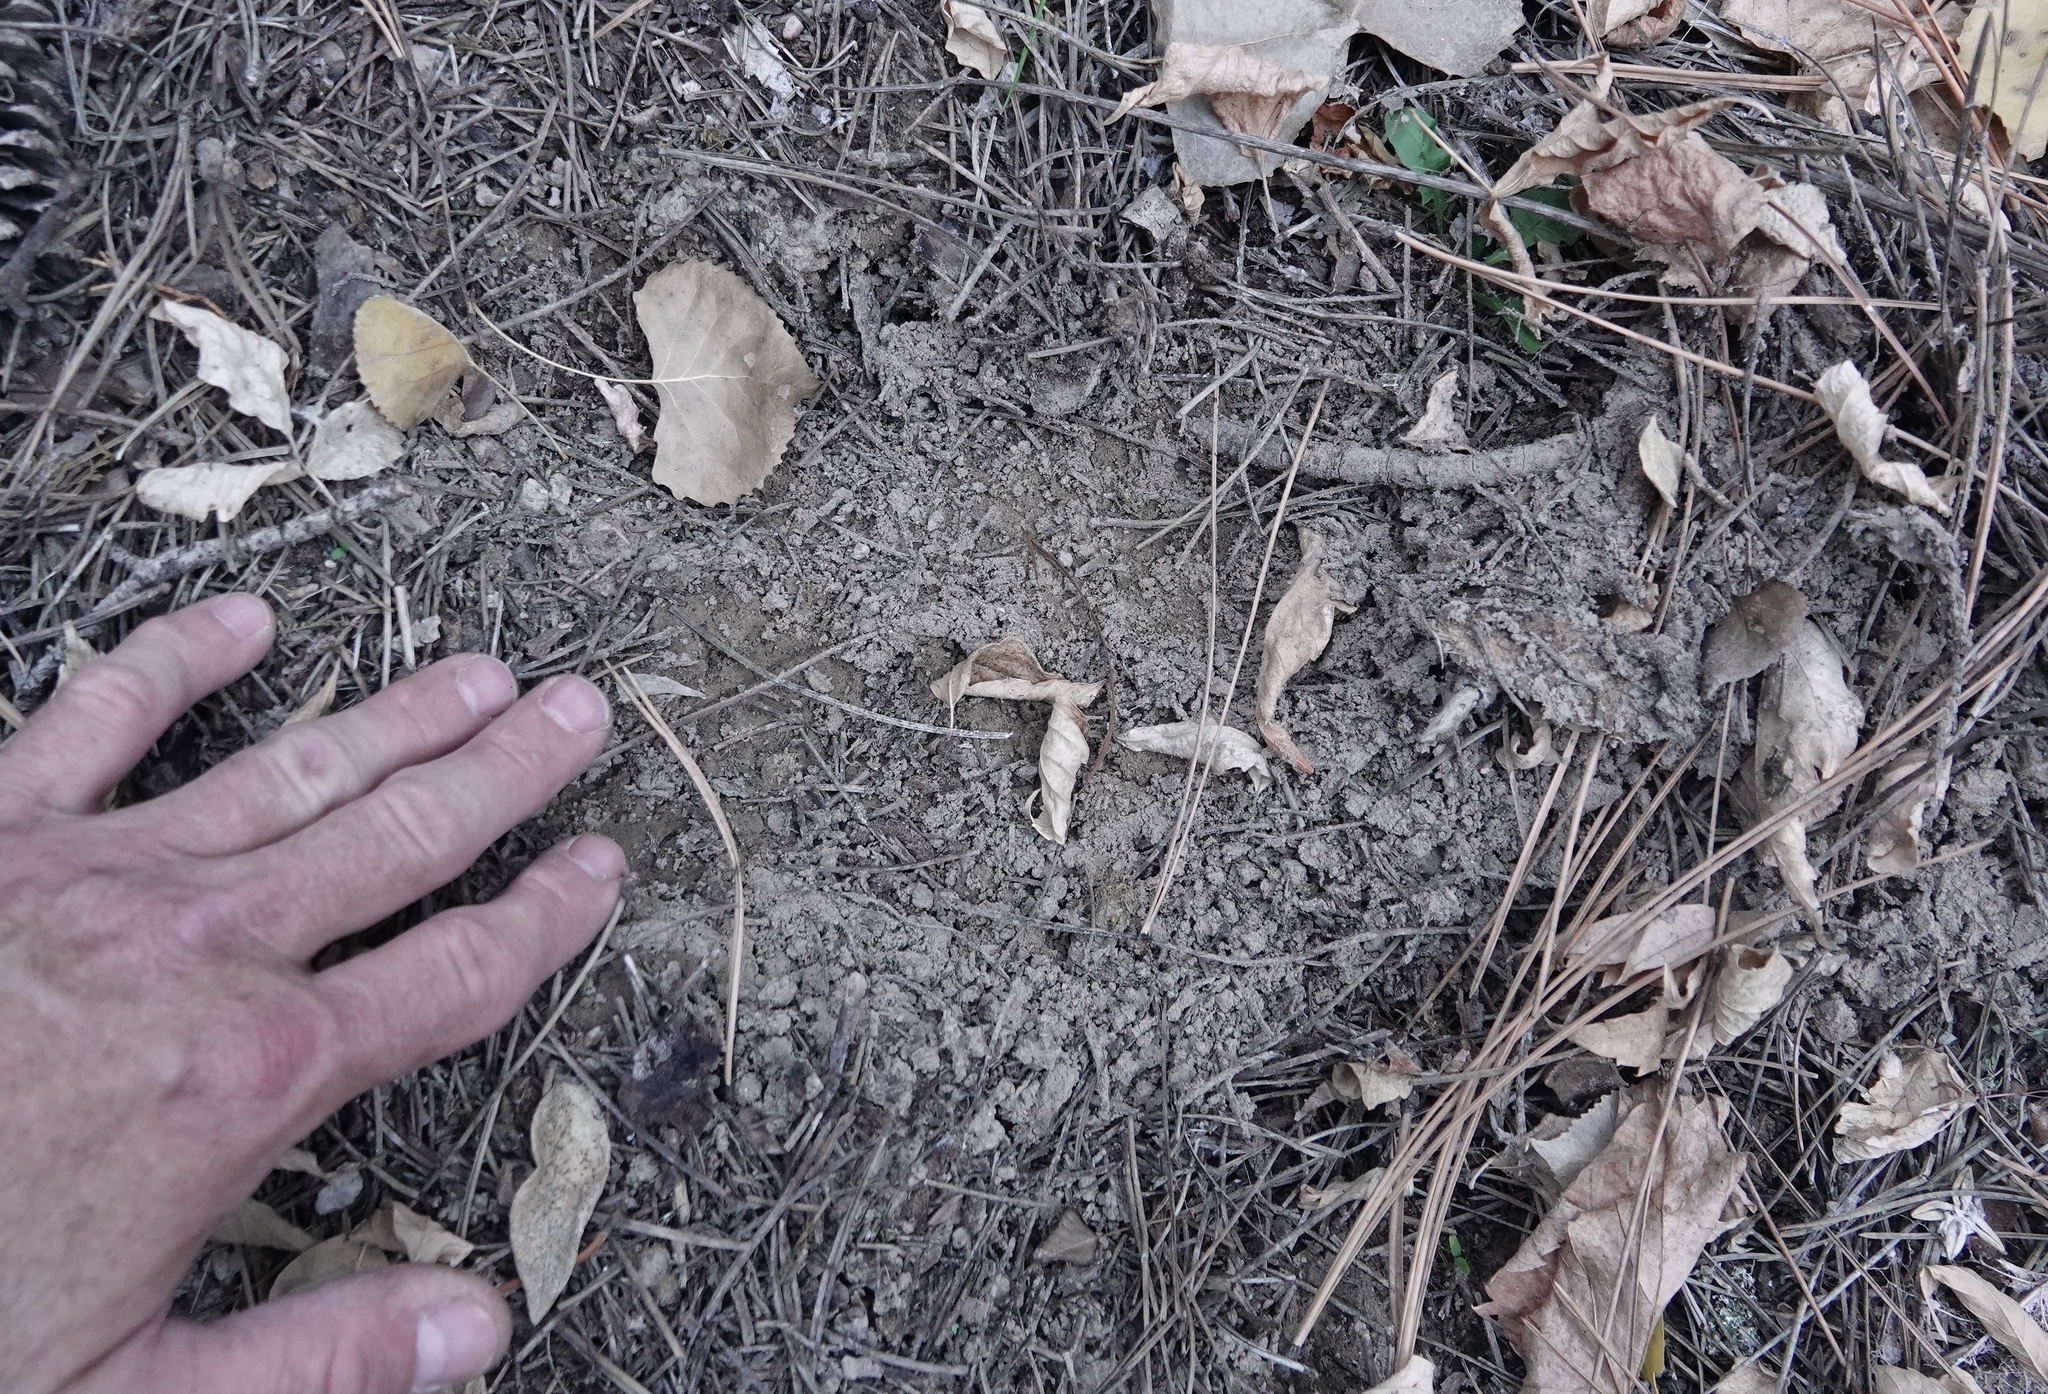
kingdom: Animalia
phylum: Chordata
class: Mammalia
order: Carnivora
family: Felidae
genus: Puma
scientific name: Puma concolor
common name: Puma
